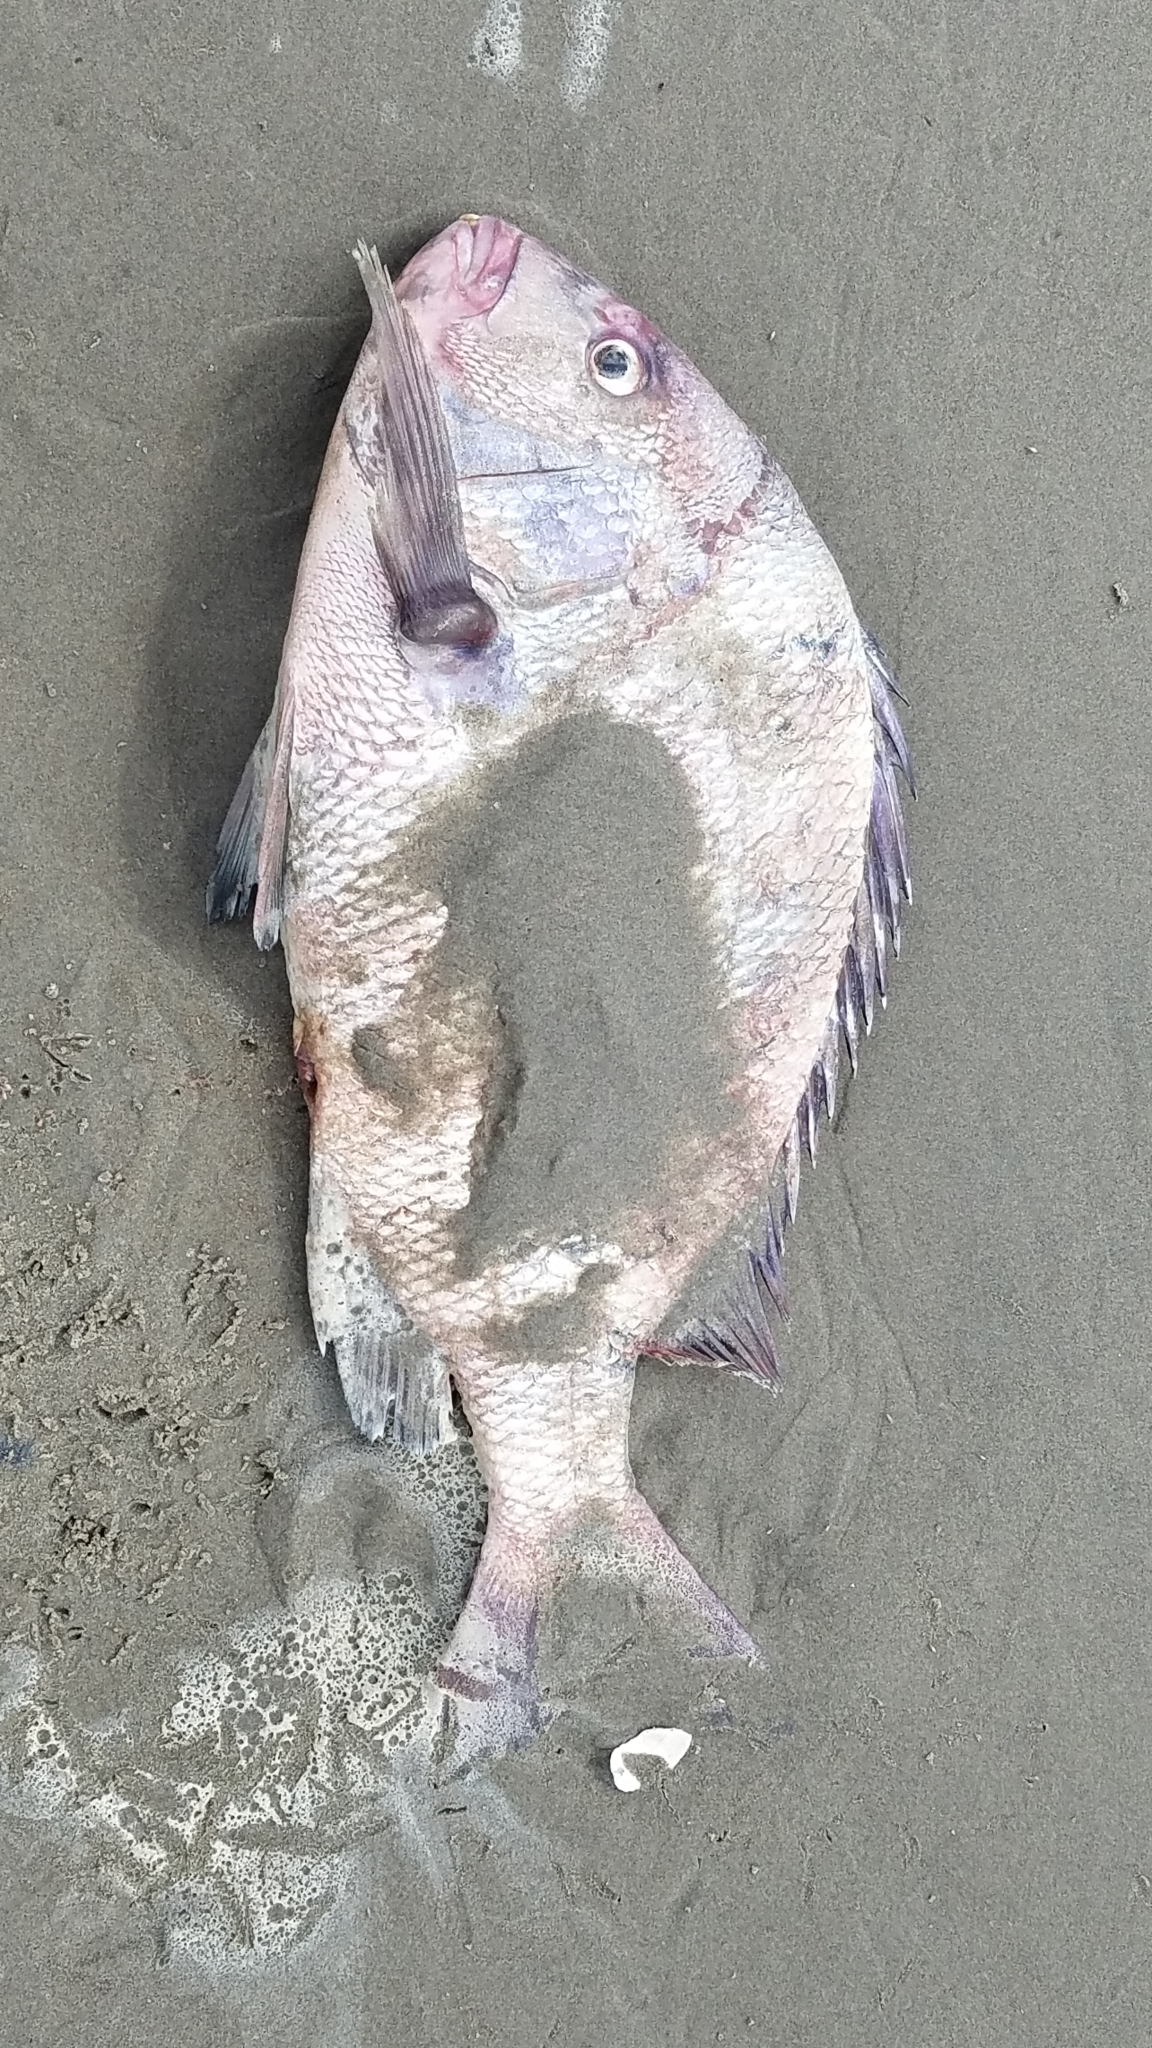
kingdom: Animalia
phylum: Chordata
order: Perciformes
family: Sparidae
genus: Archosargus
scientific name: Archosargus probatocephalus
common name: Sheepshead
